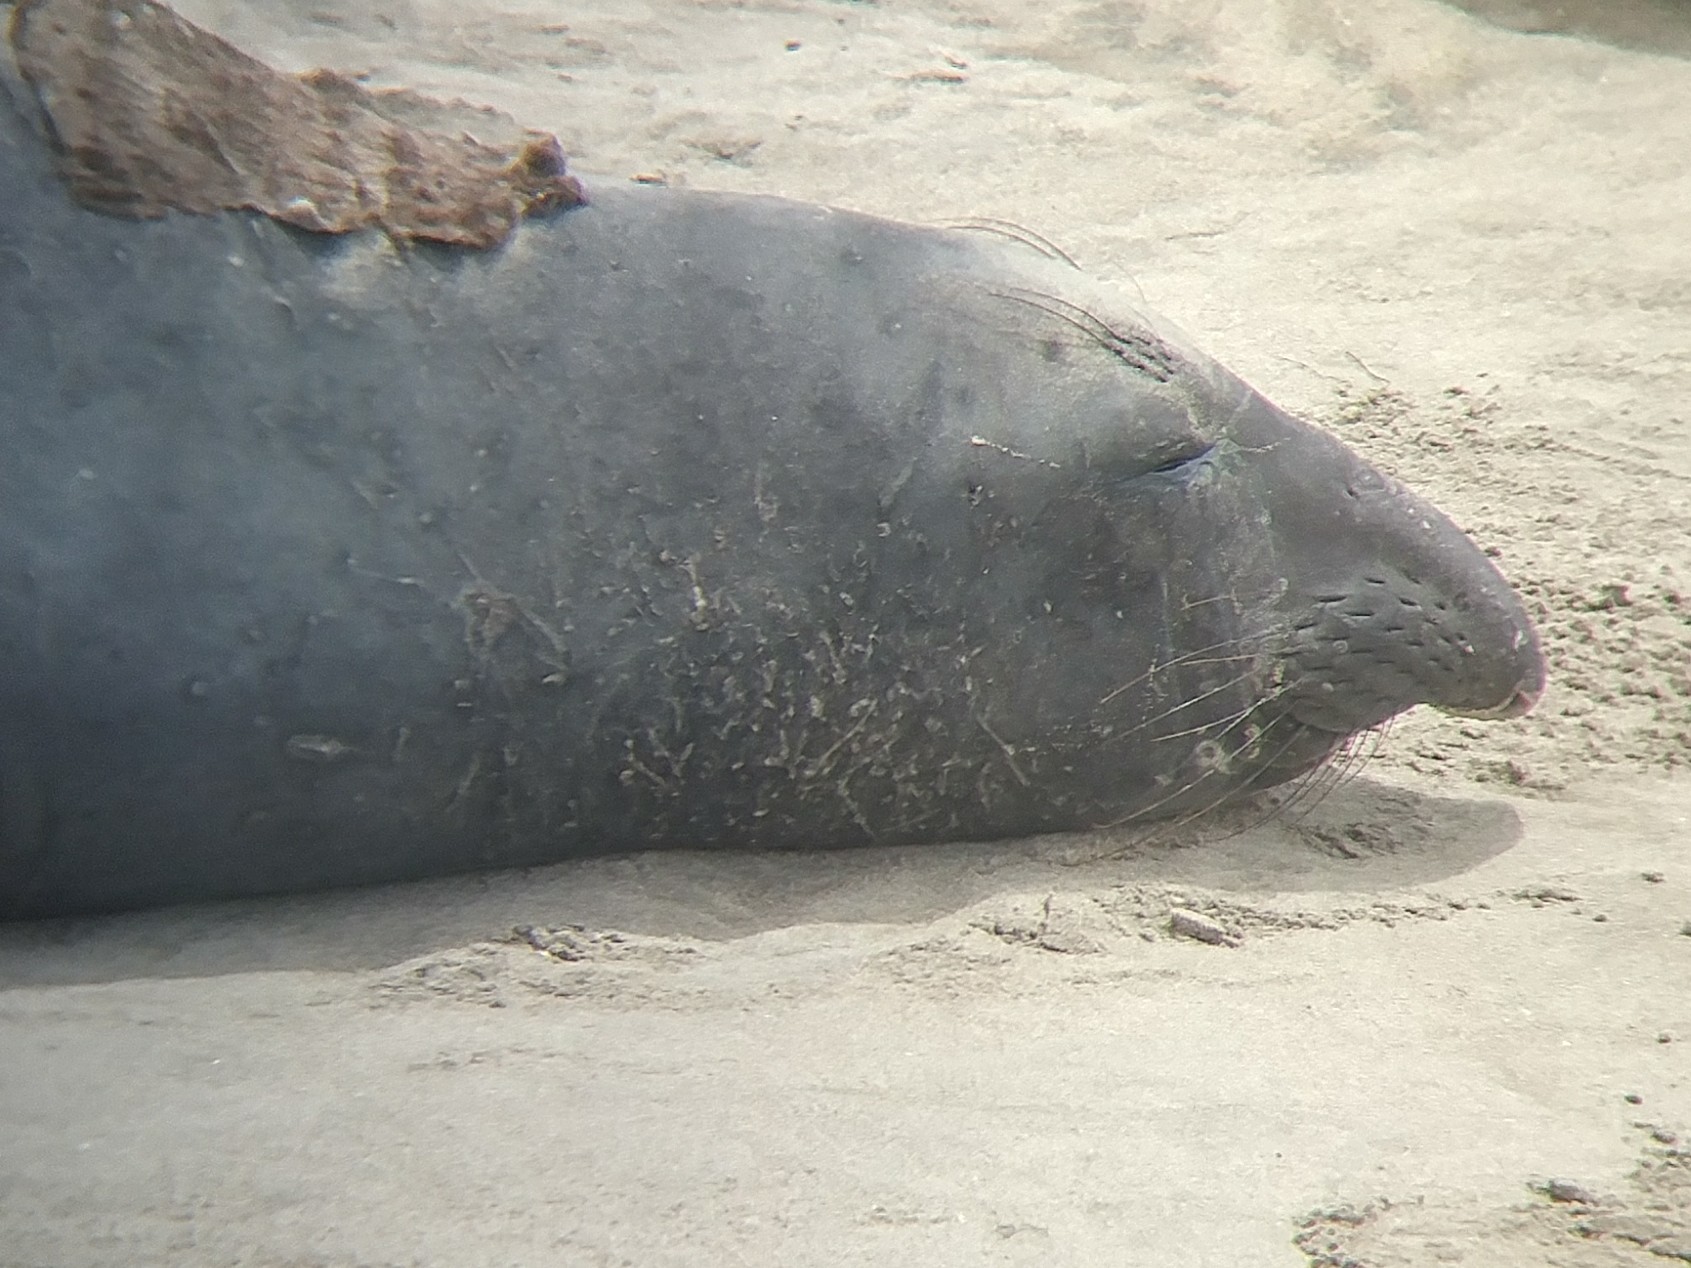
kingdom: Animalia
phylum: Chordata
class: Mammalia
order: Carnivora
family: Phocidae
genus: Mirounga
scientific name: Mirounga angustirostris
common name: Northern elephant seal
